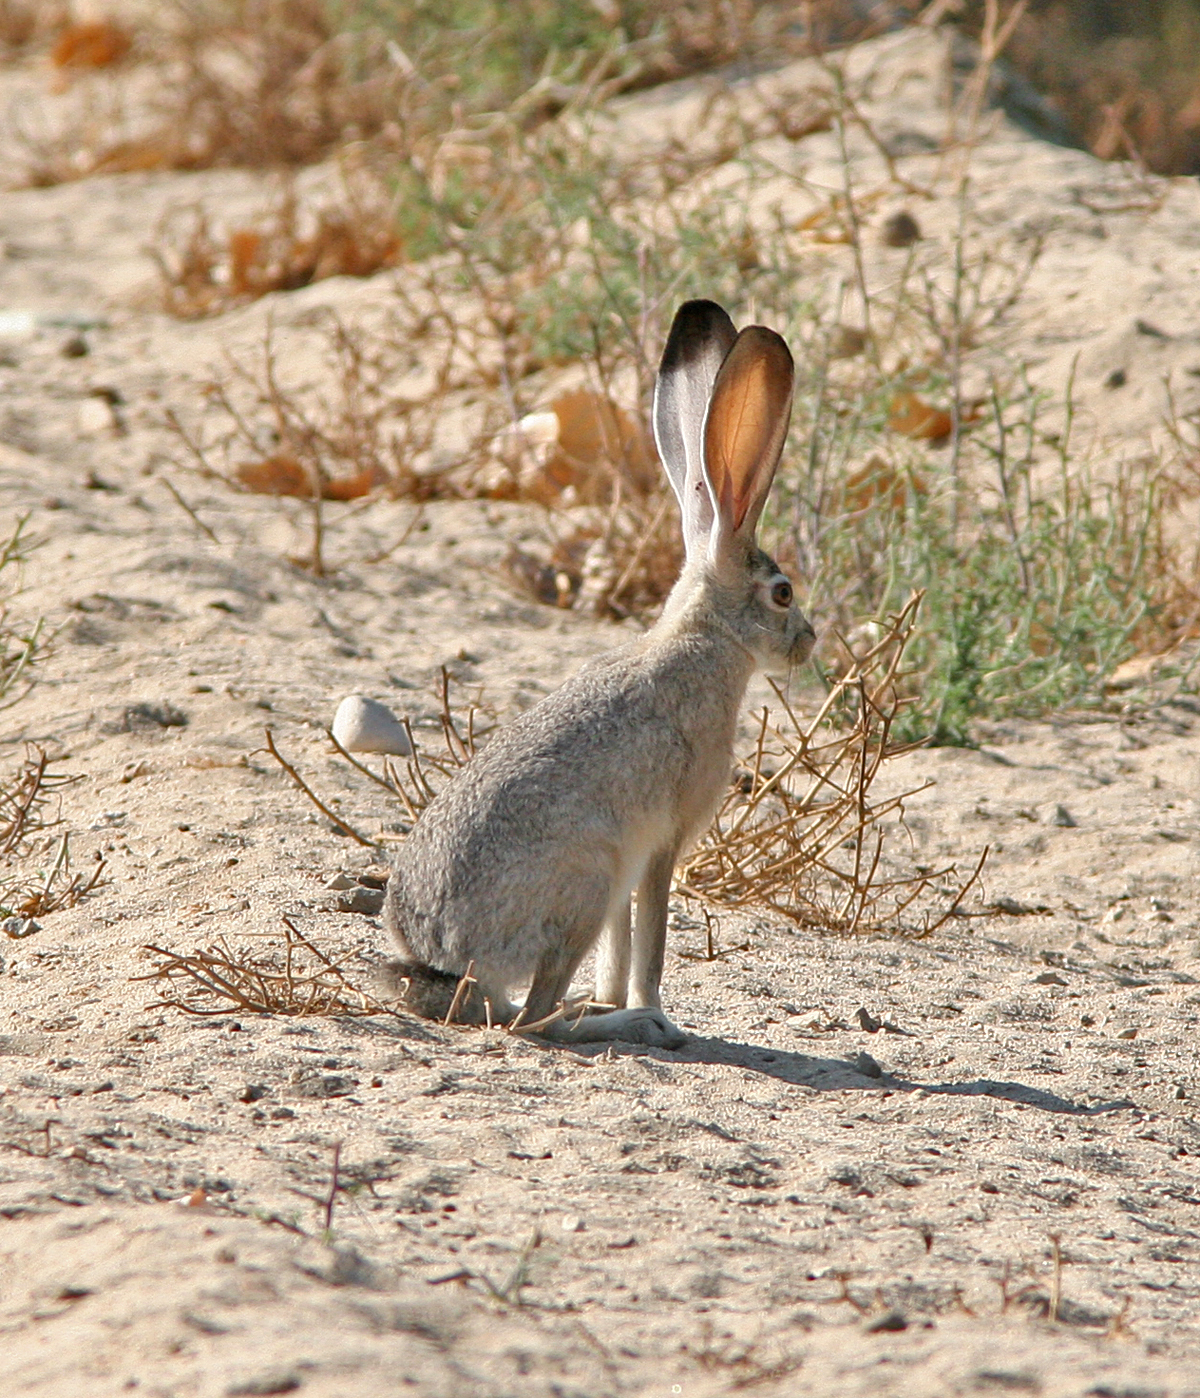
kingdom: Animalia
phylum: Chordata
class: Mammalia
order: Lagomorpha
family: Leporidae
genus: Lepus
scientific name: Lepus californicus
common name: Black-tailed jackrabbit
